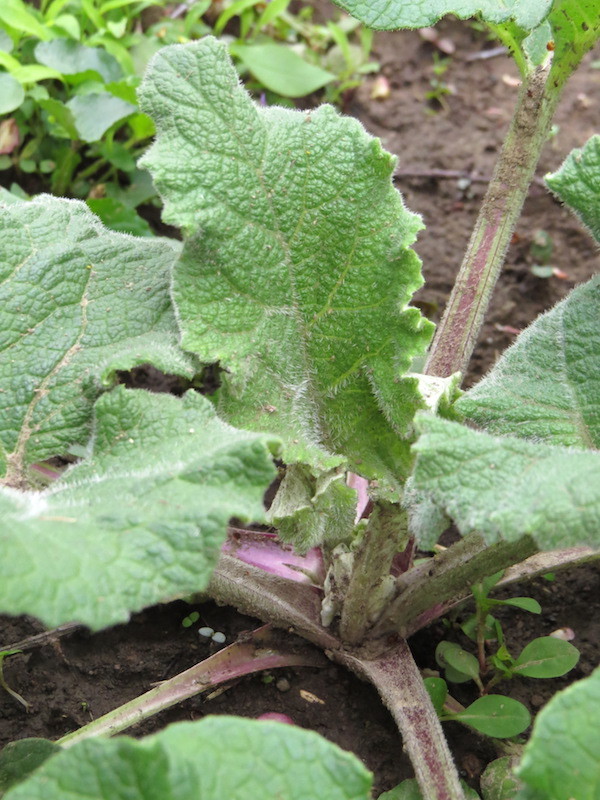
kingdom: Plantae
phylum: Tracheophyta
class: Magnoliopsida
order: Asterales
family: Asteraceae
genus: Arctium
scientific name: Arctium
